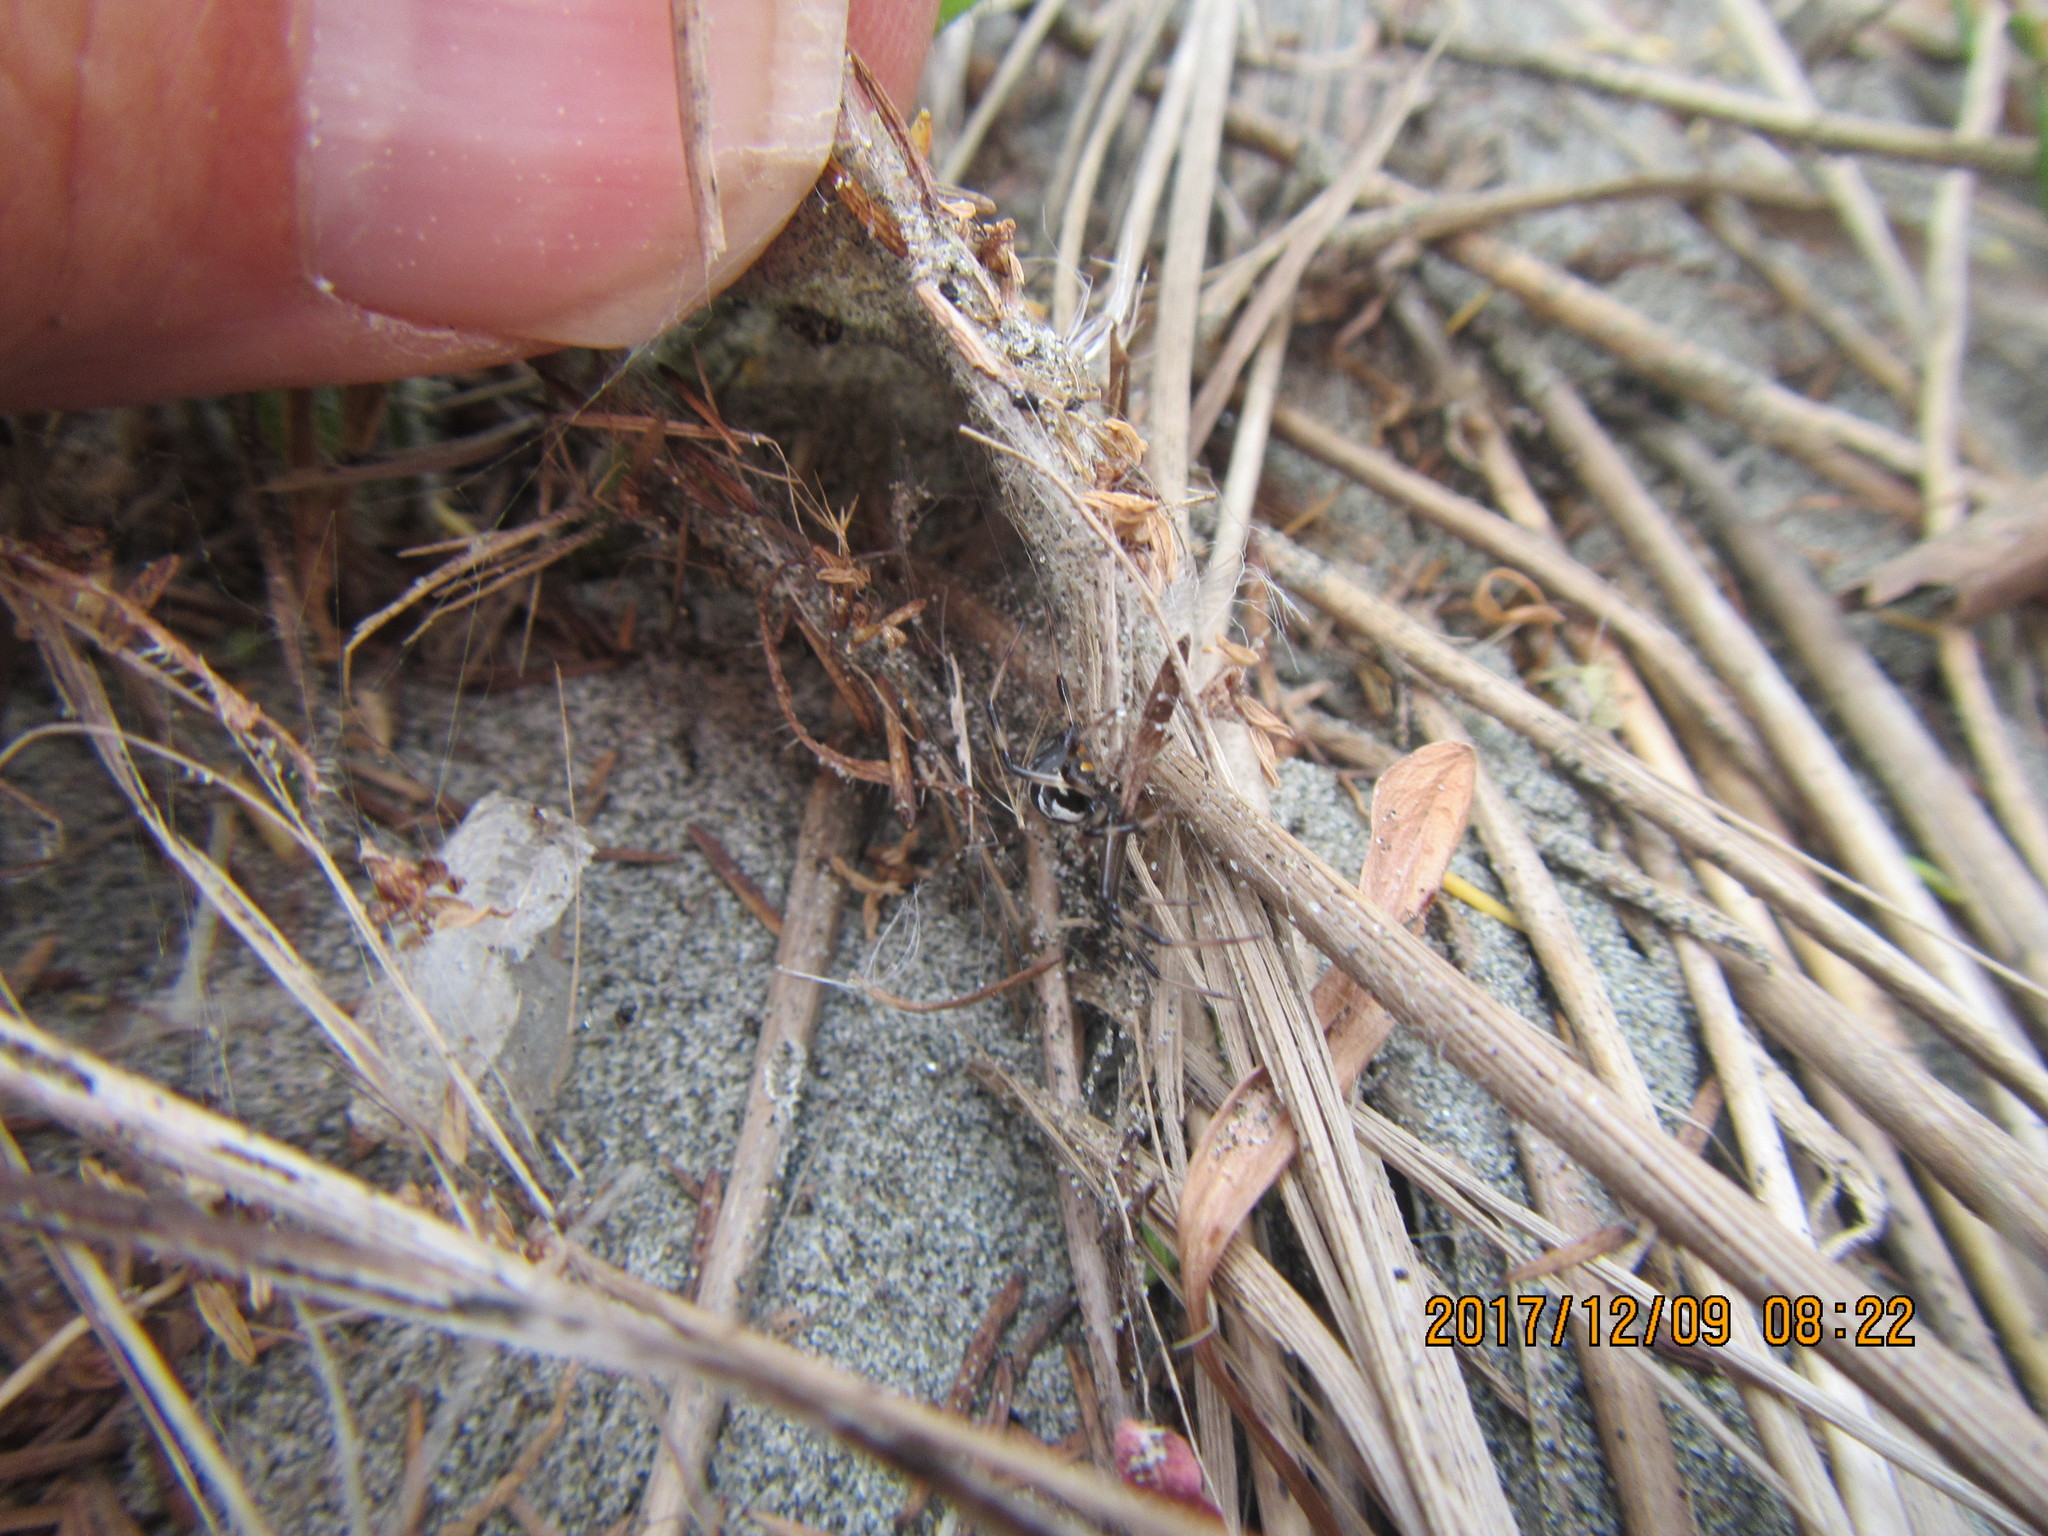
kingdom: Animalia
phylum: Arthropoda
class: Arachnida
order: Araneae
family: Theridiidae
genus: Latrodectus
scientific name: Latrodectus katipo
